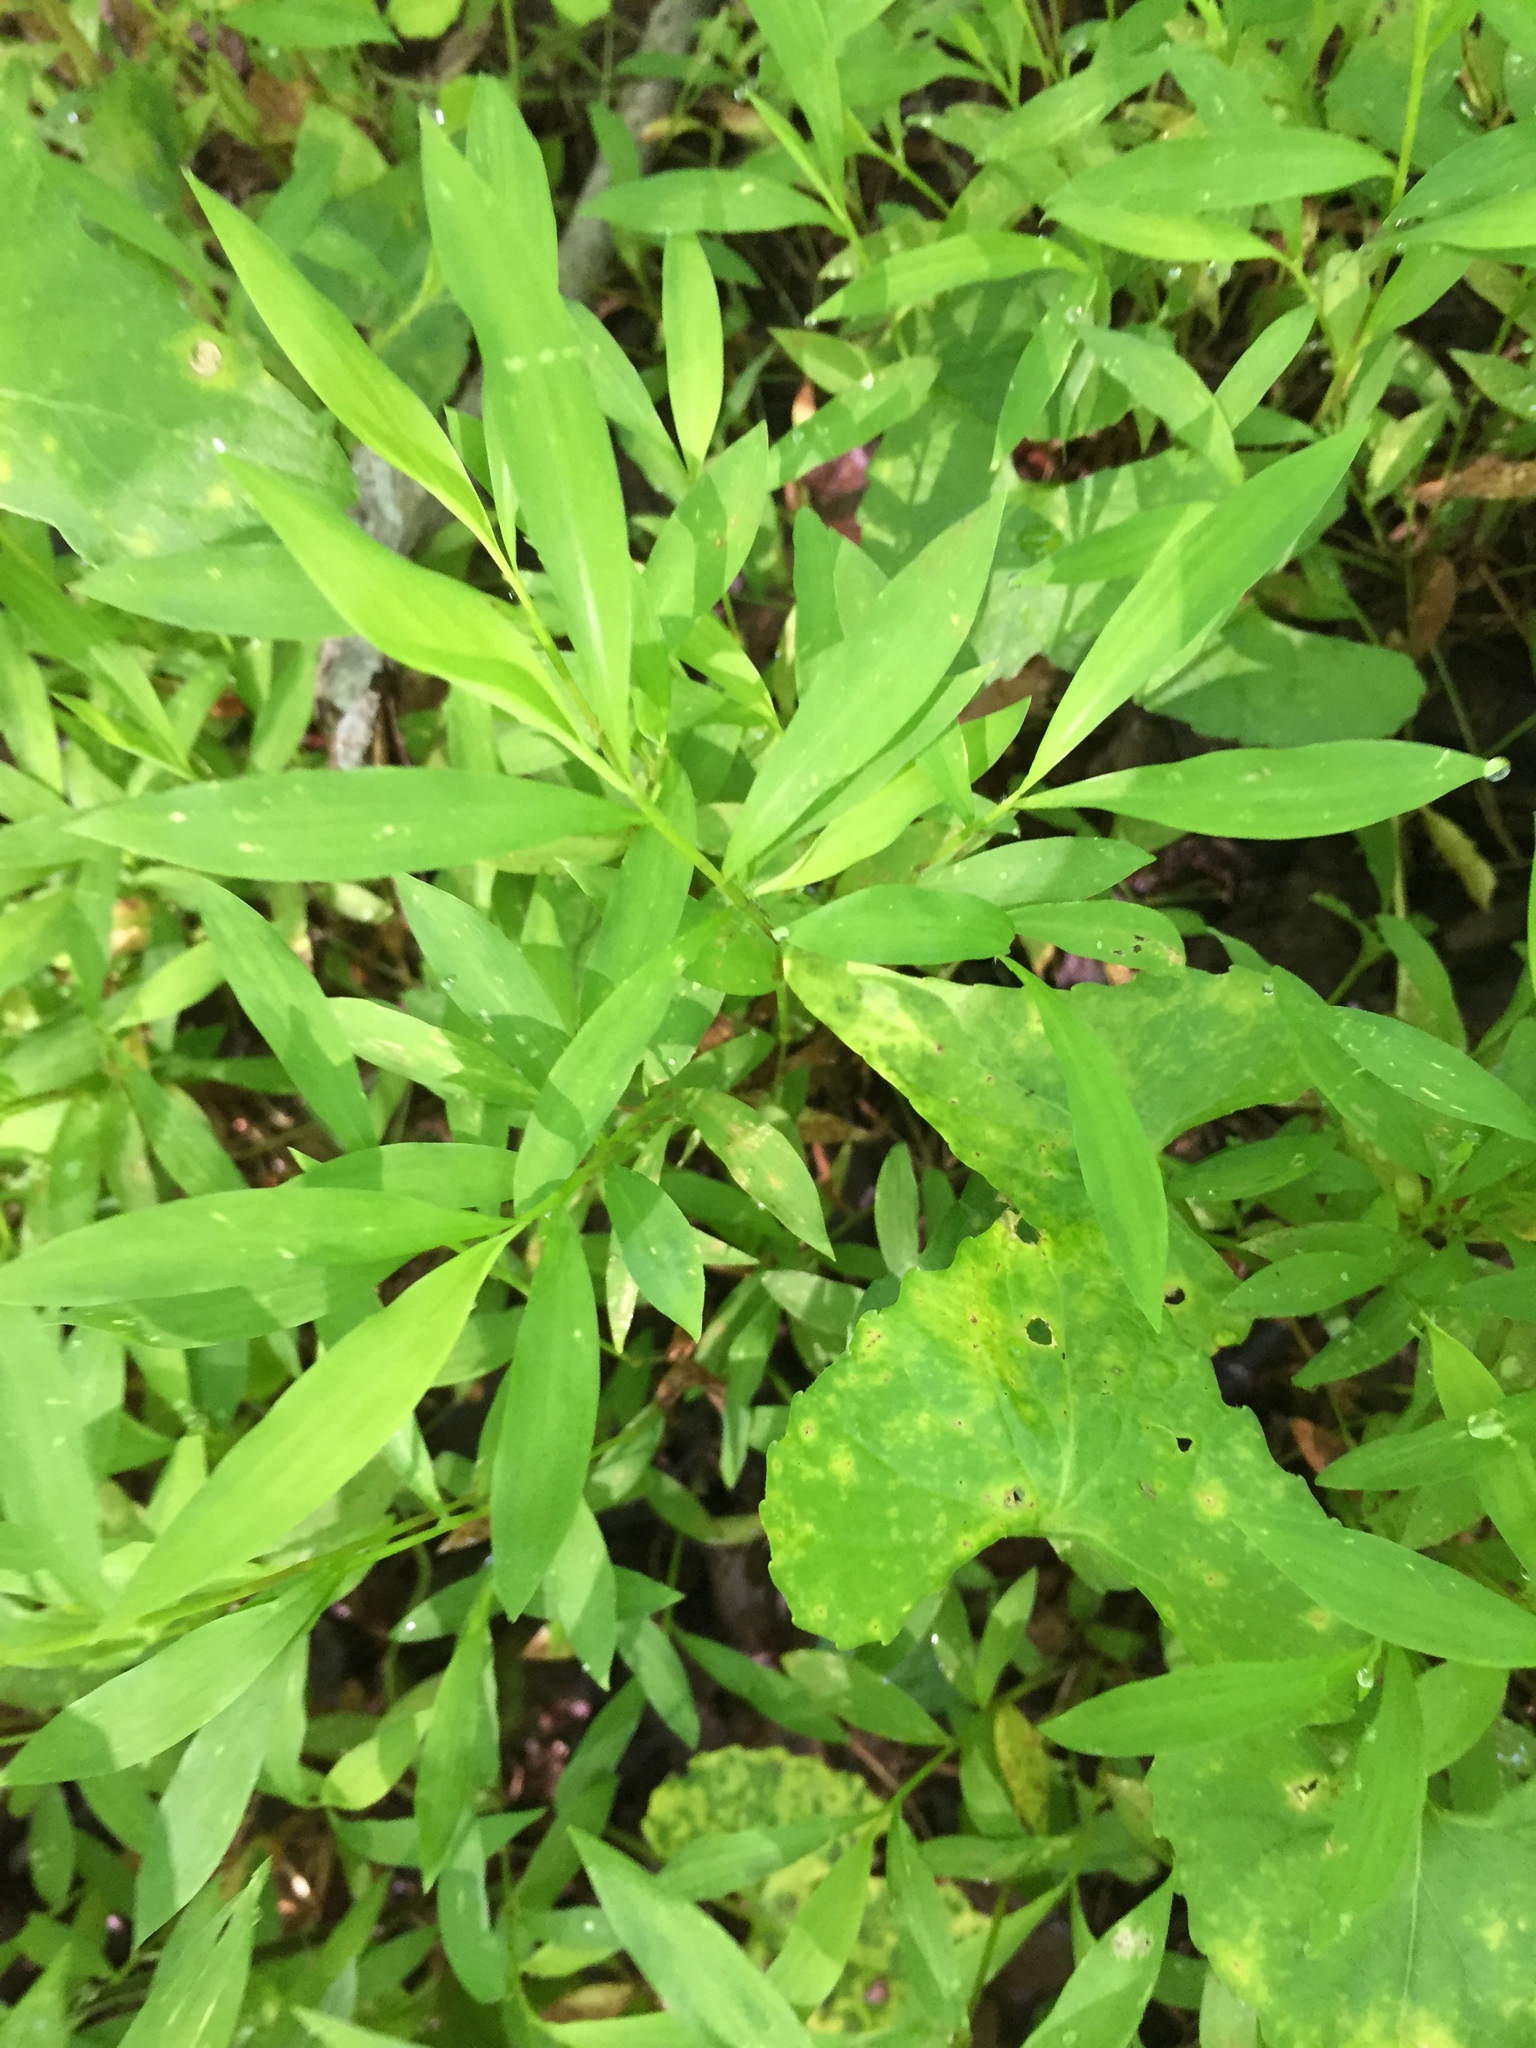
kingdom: Plantae
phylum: Tracheophyta
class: Liliopsida
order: Poales
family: Poaceae
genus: Microstegium
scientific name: Microstegium vimineum
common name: Japanese stiltgrass
